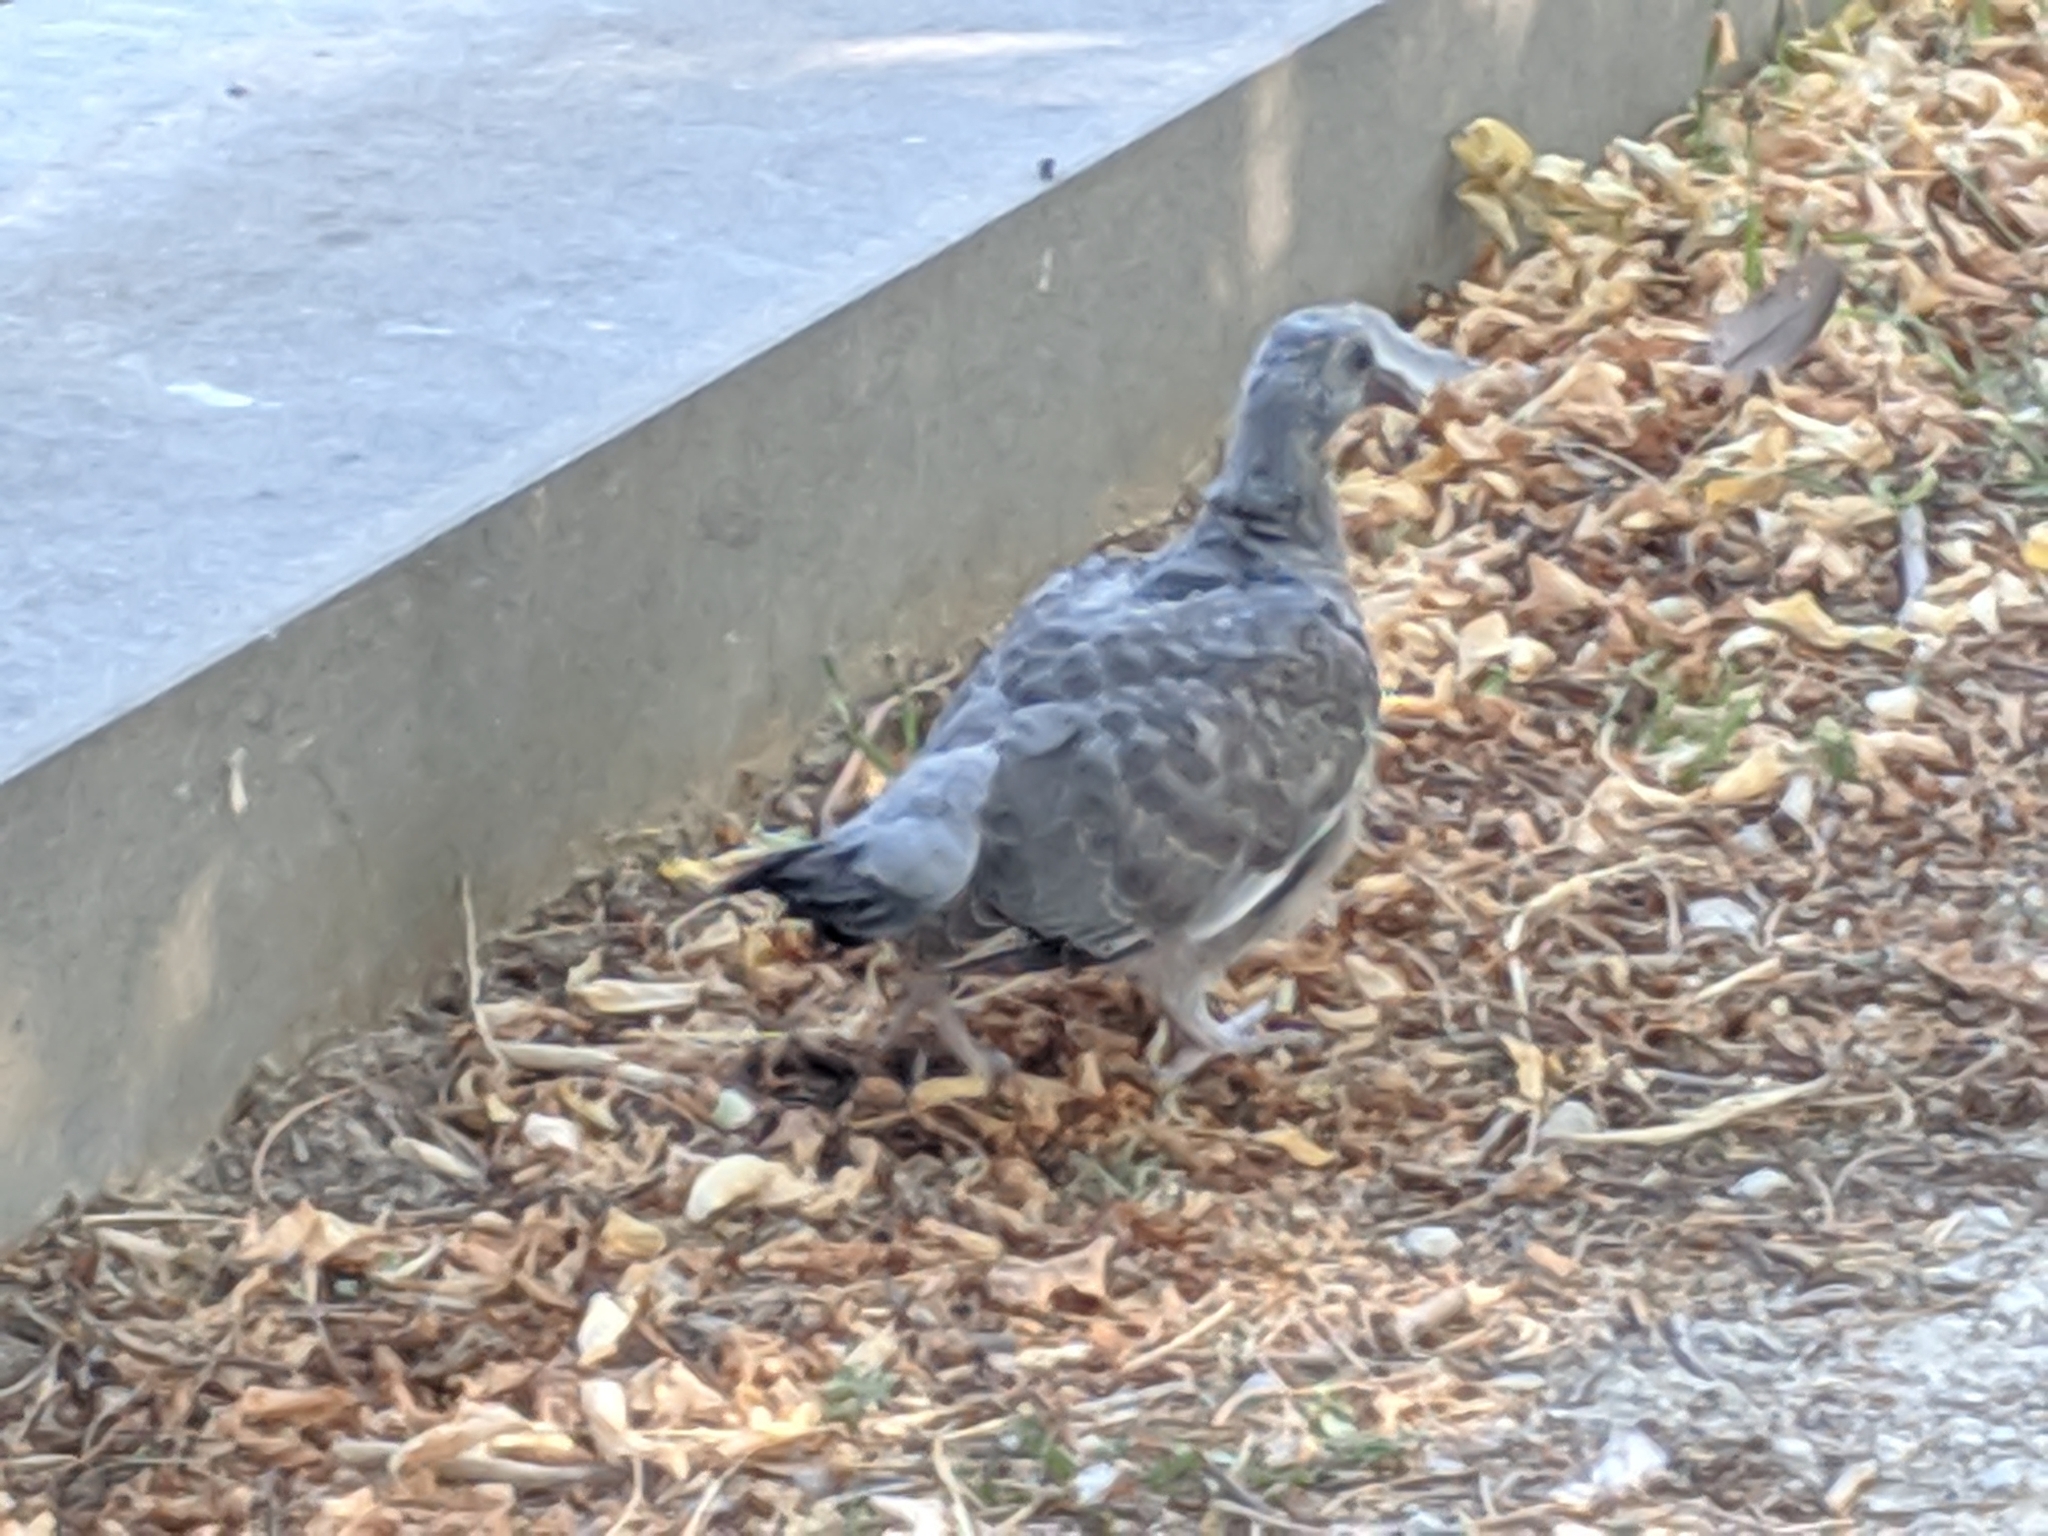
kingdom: Animalia
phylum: Chordata
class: Aves
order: Columbiformes
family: Columbidae
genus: Columba
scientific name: Columba palumbus
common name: Common wood pigeon
